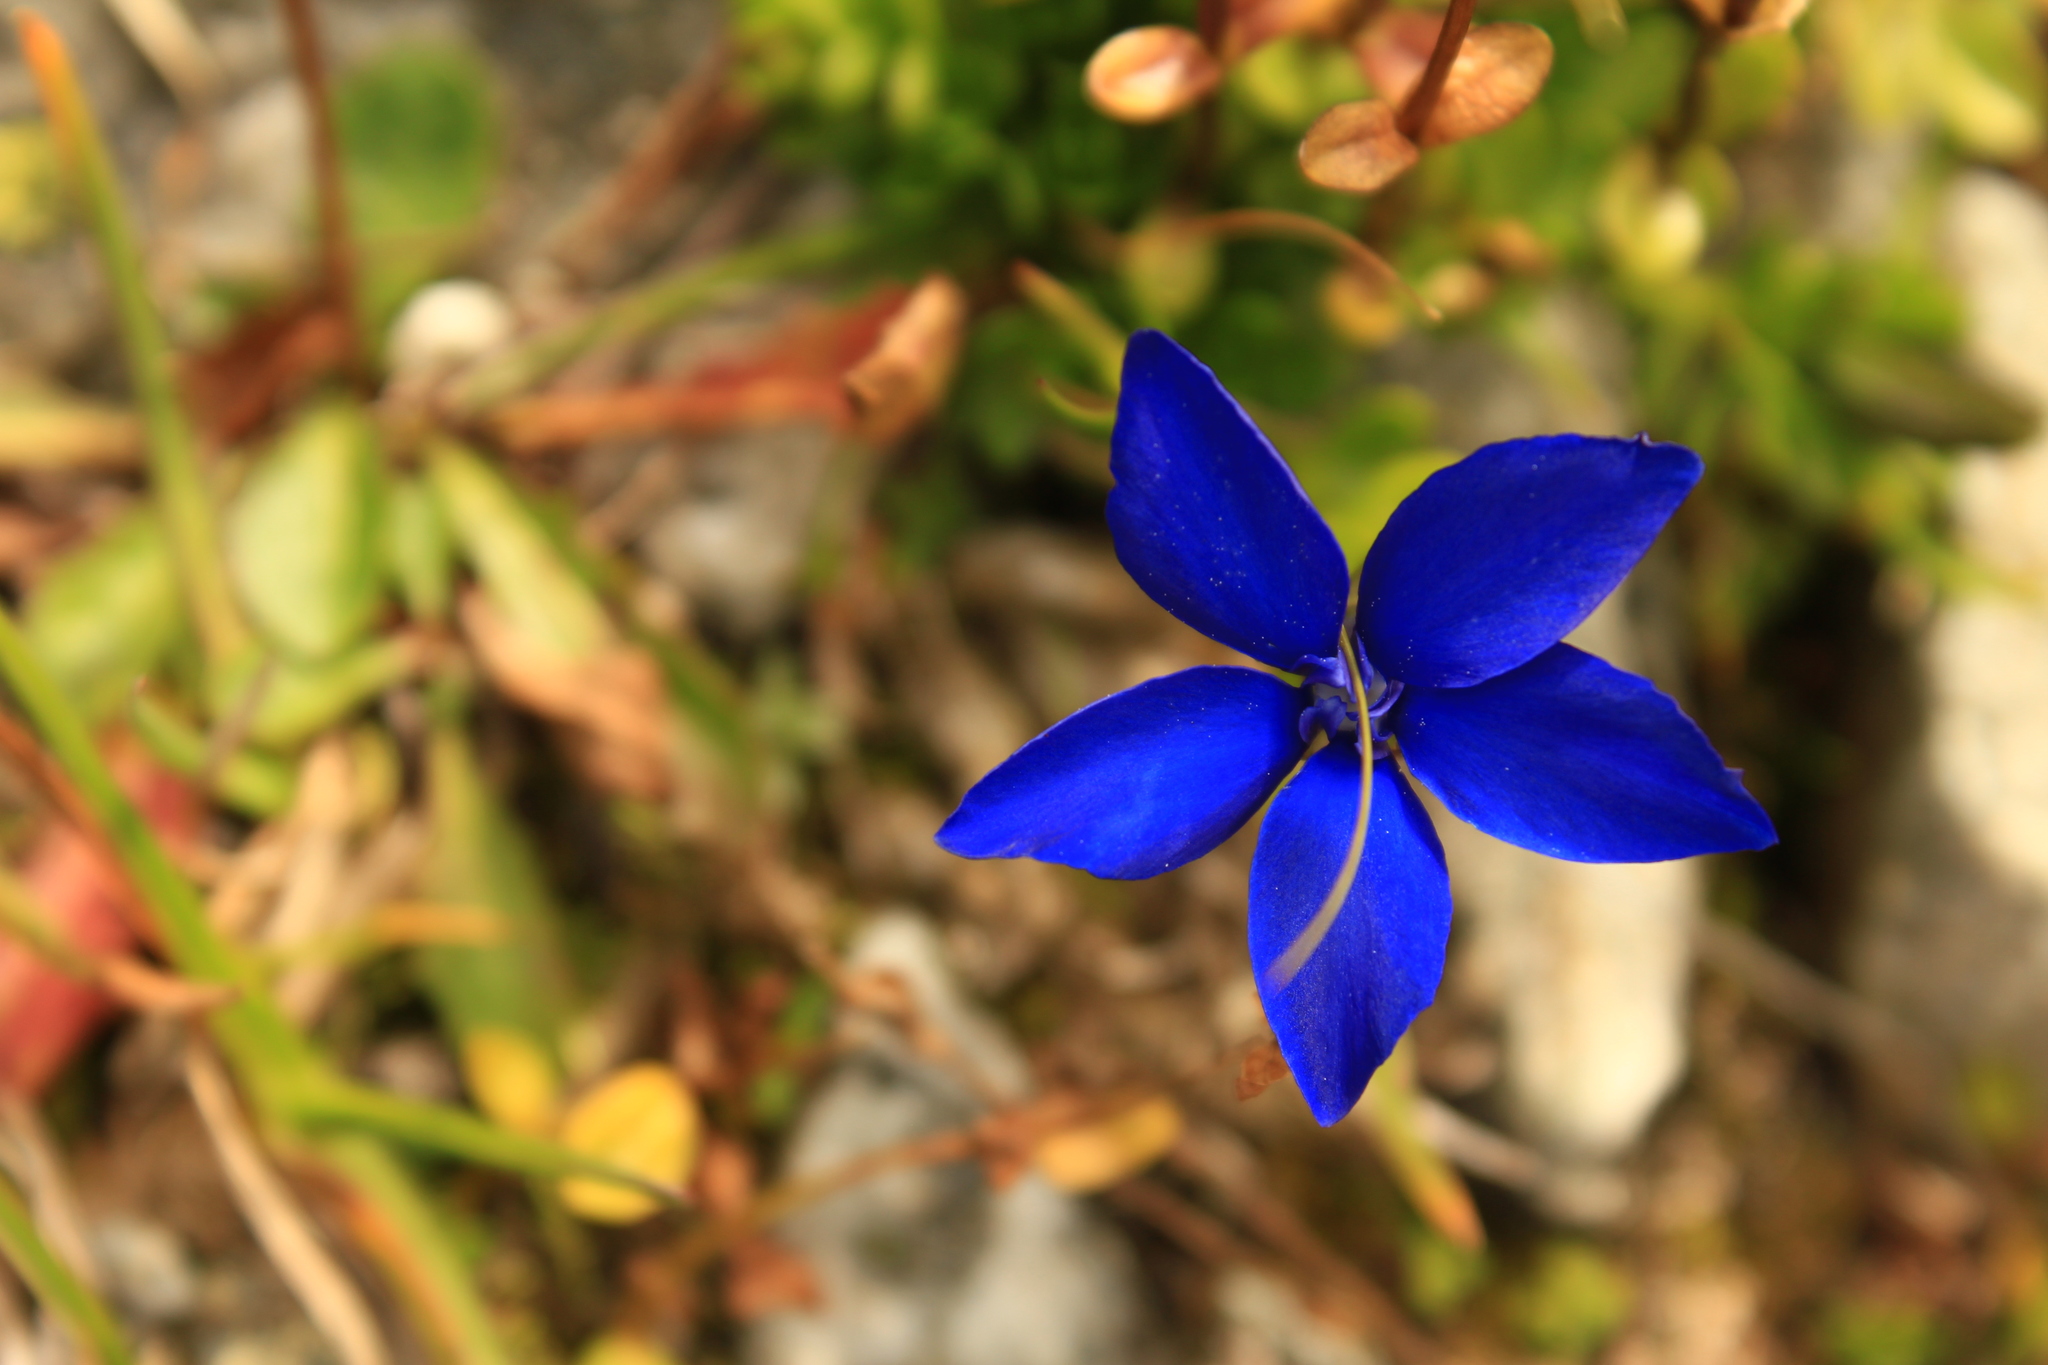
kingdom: Plantae
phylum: Tracheophyta
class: Magnoliopsida
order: Gentianales
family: Gentianaceae
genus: Gentiana
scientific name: Gentiana
